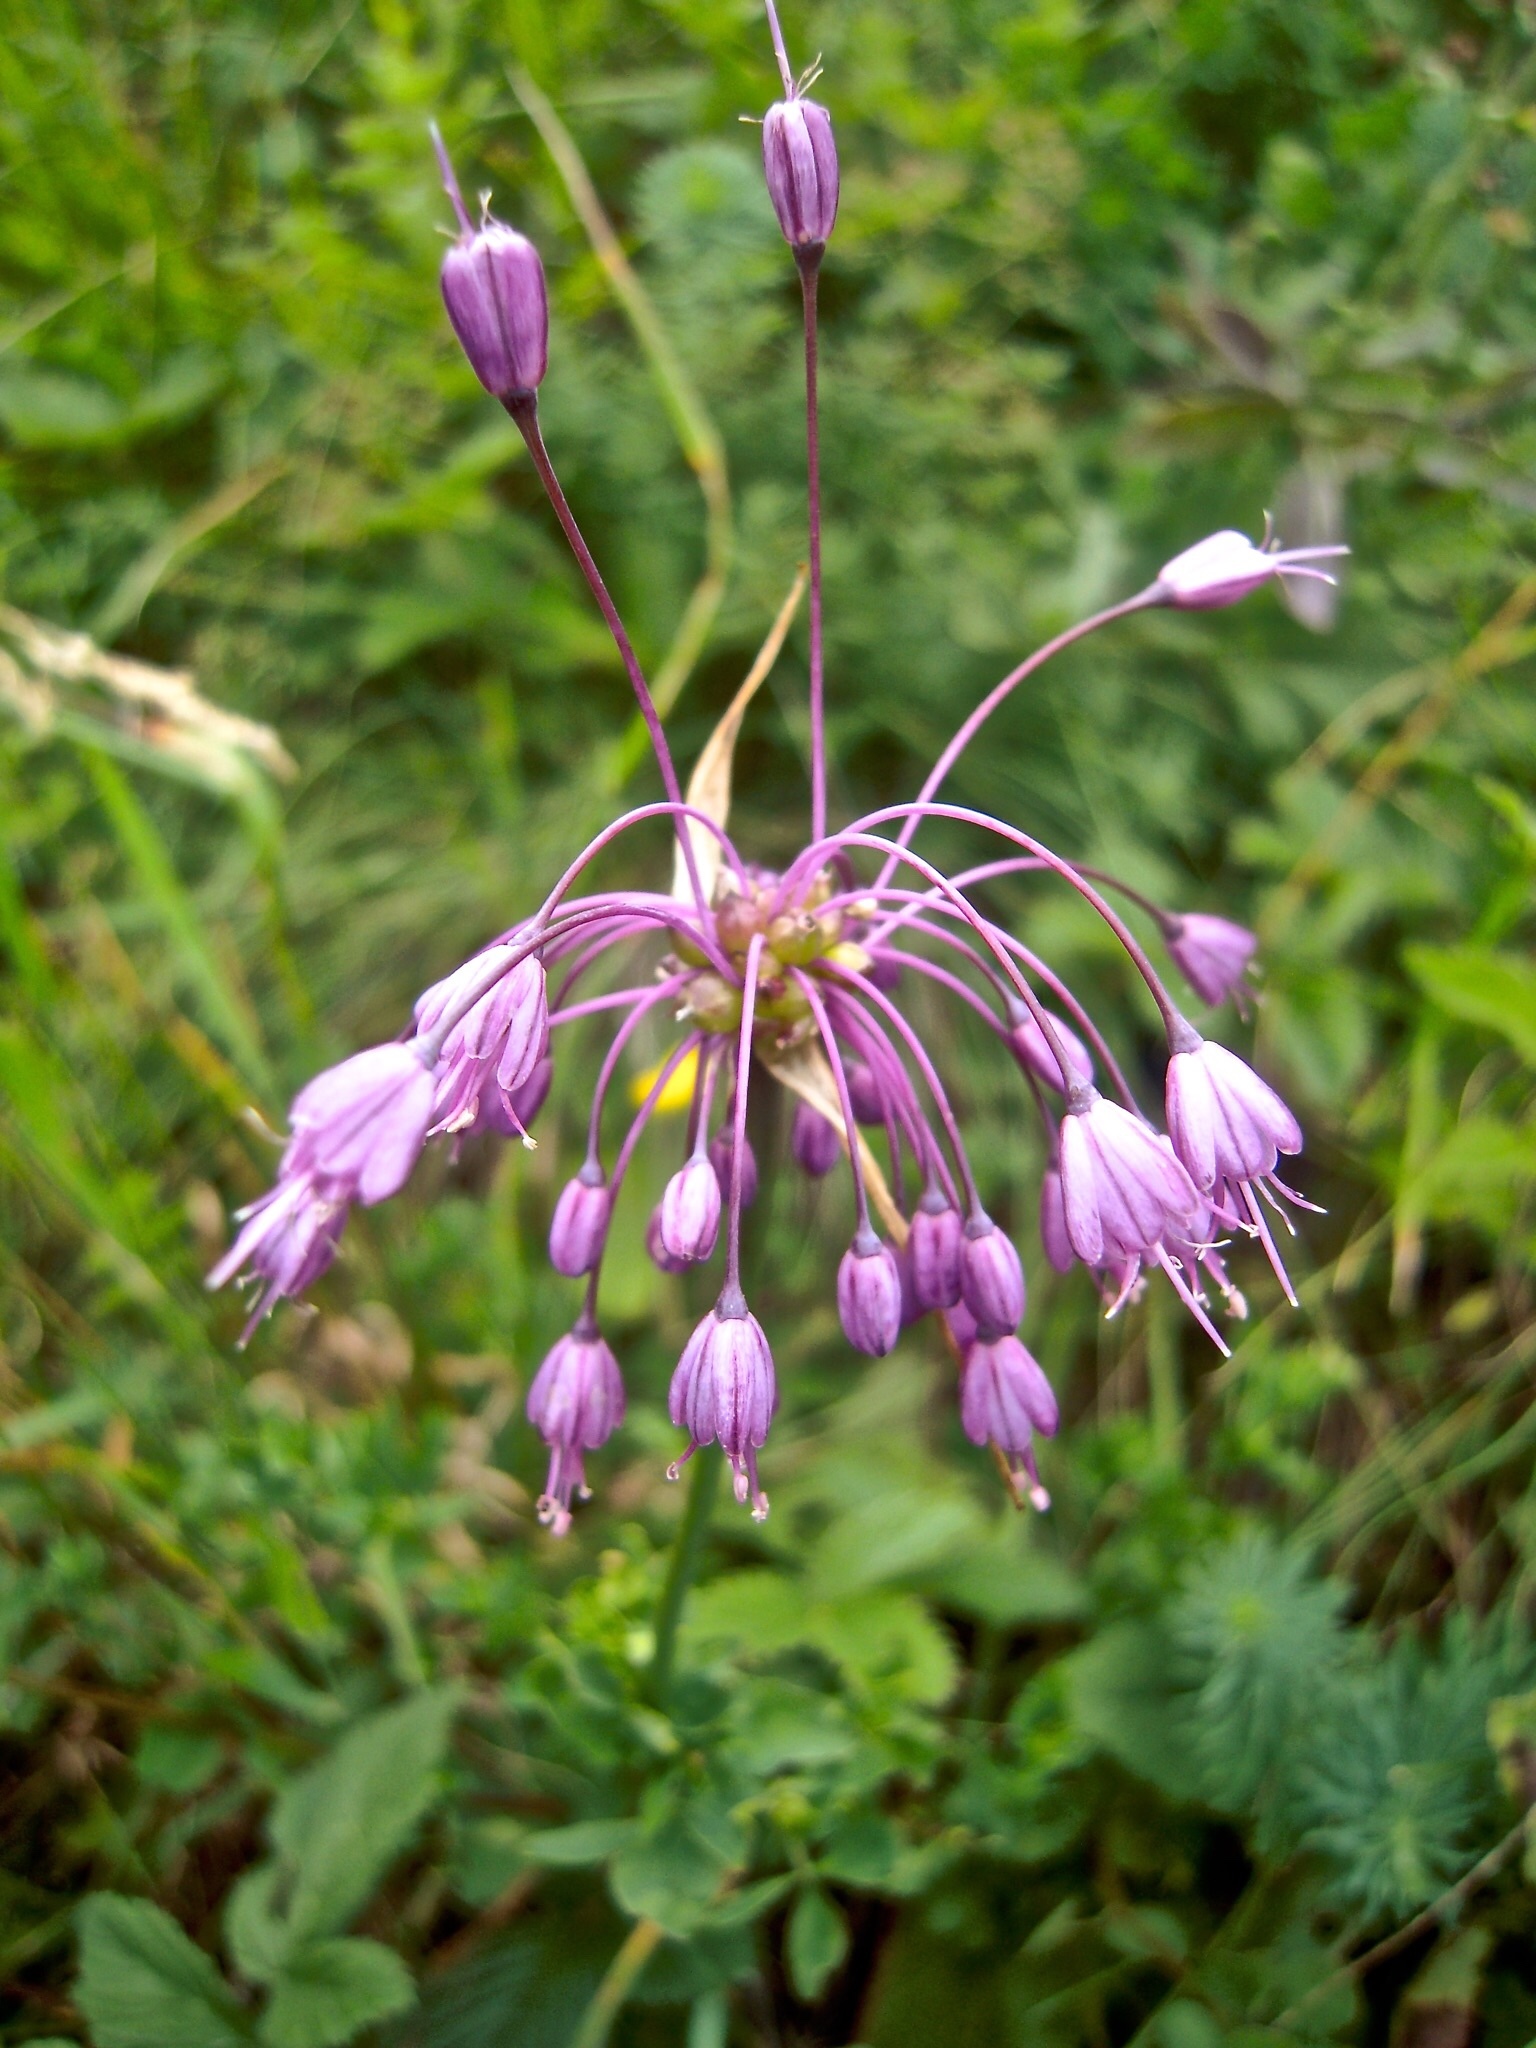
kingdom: Plantae
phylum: Tracheophyta
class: Liliopsida
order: Asparagales
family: Amaryllidaceae
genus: Allium
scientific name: Allium carinatum
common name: Keeled garlic
